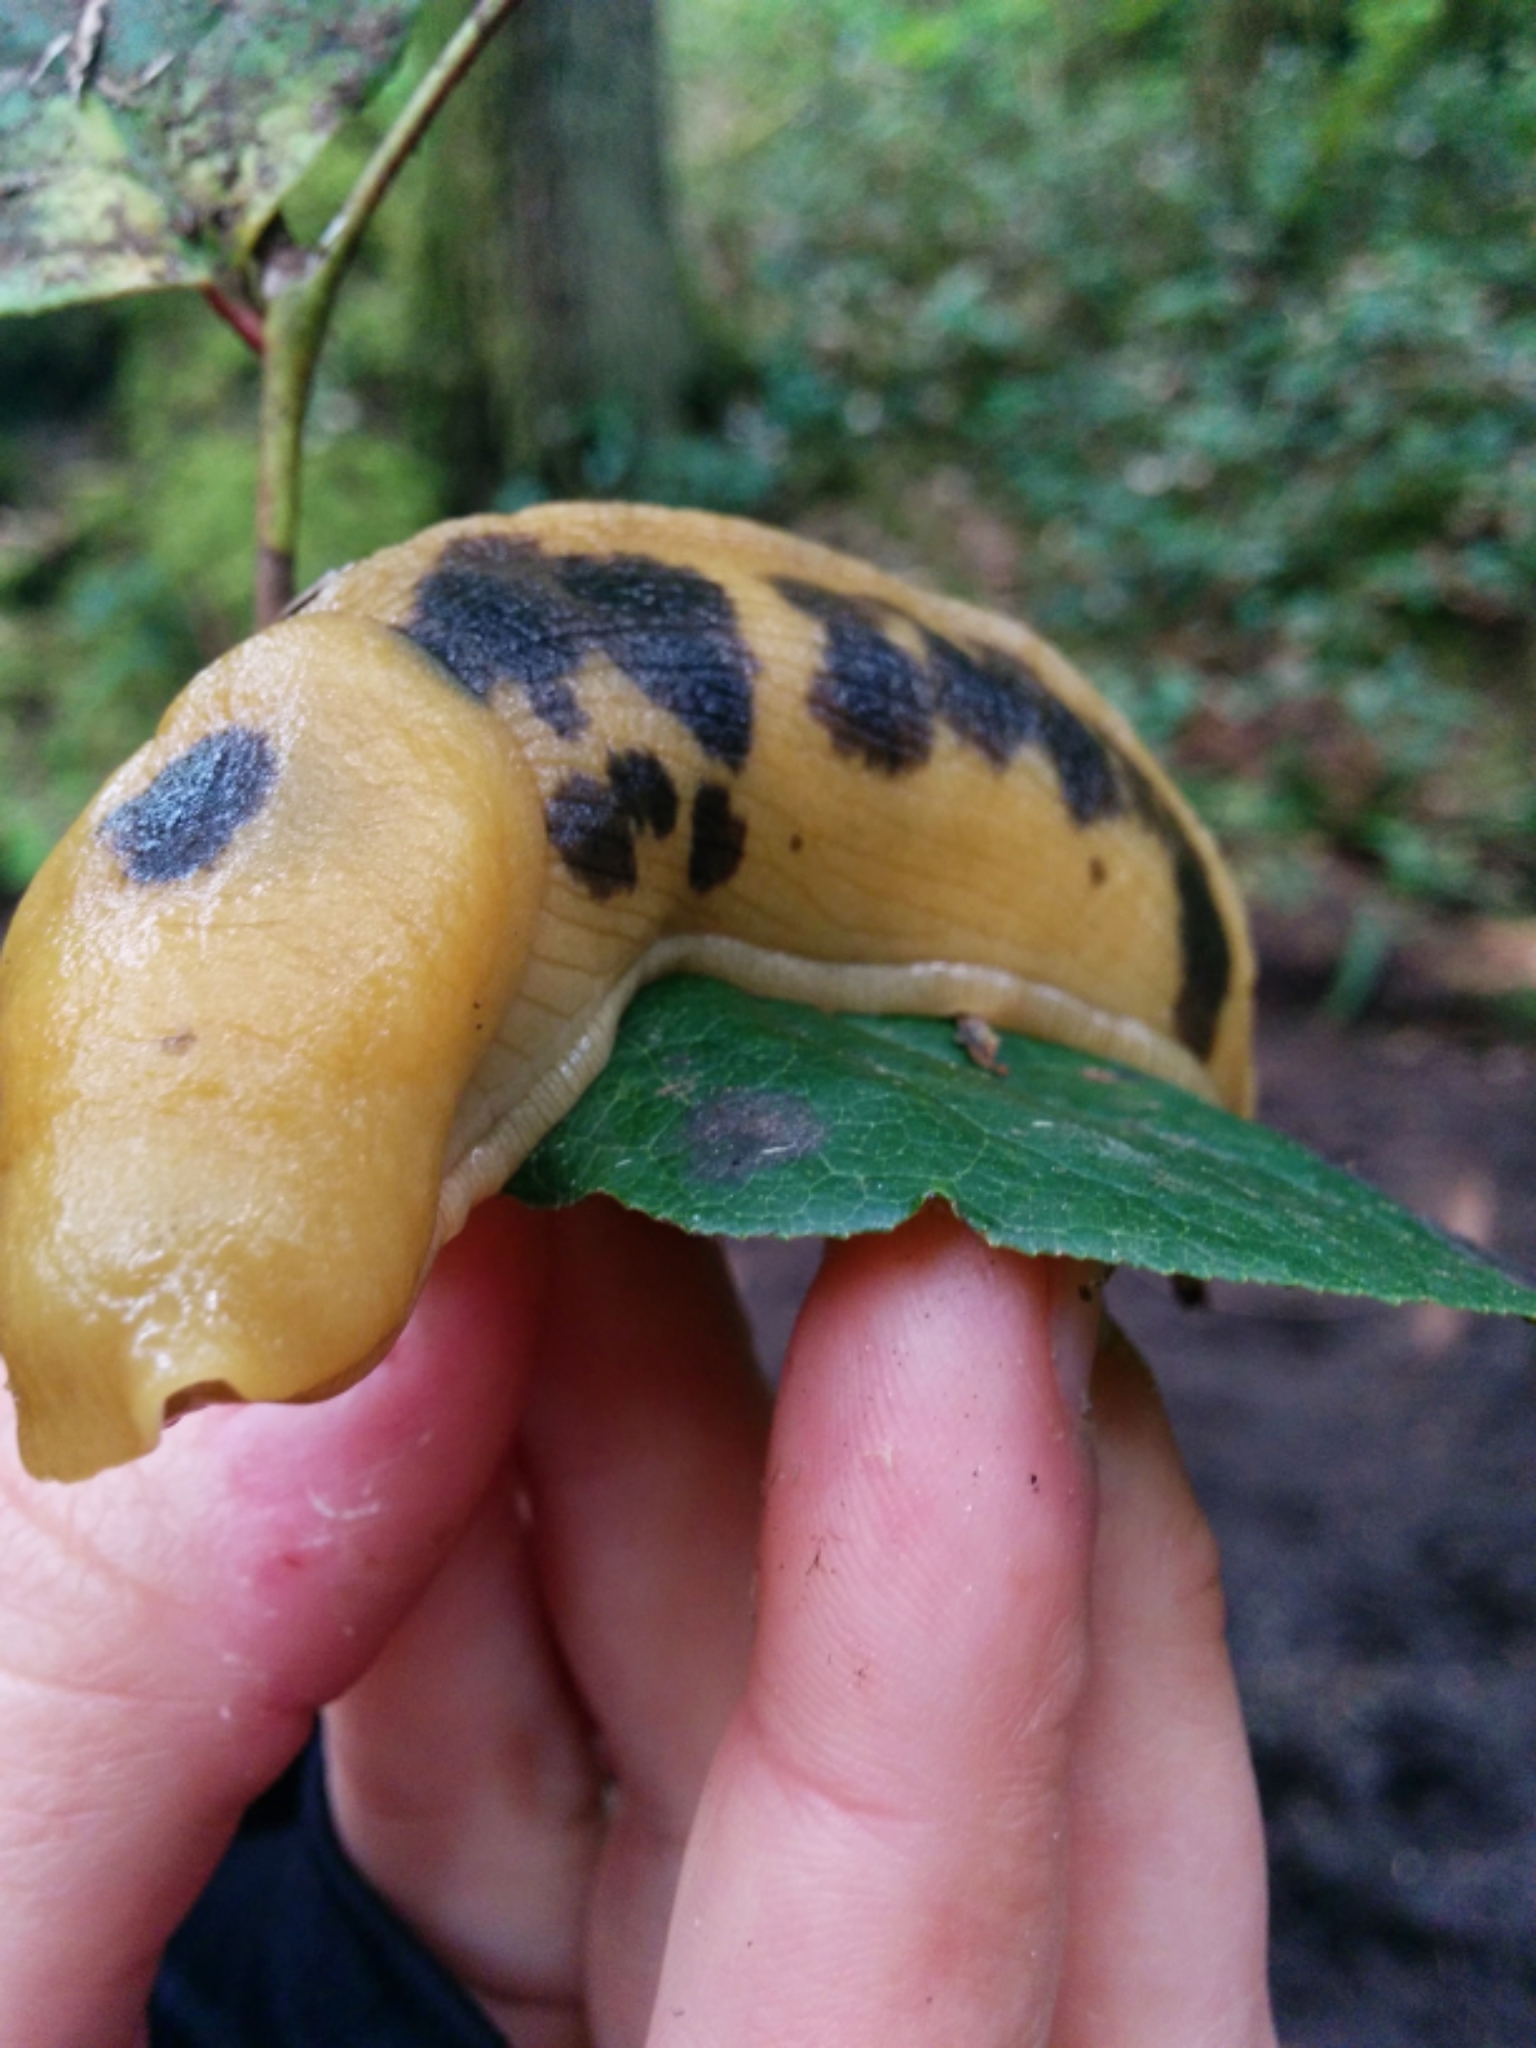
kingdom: Animalia
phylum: Mollusca
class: Gastropoda
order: Stylommatophora
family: Ariolimacidae
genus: Ariolimax
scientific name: Ariolimax columbianus
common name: Pacific banana slug
